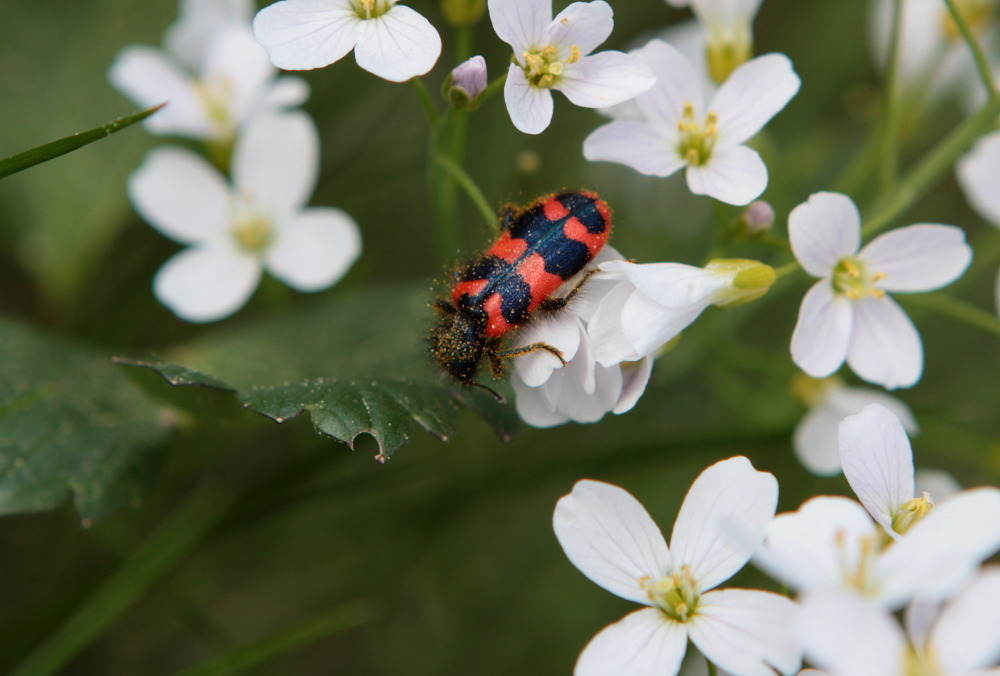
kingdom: Animalia
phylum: Arthropoda
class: Insecta
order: Coleoptera
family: Cleridae
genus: Trichodes
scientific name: Trichodes alvearius
